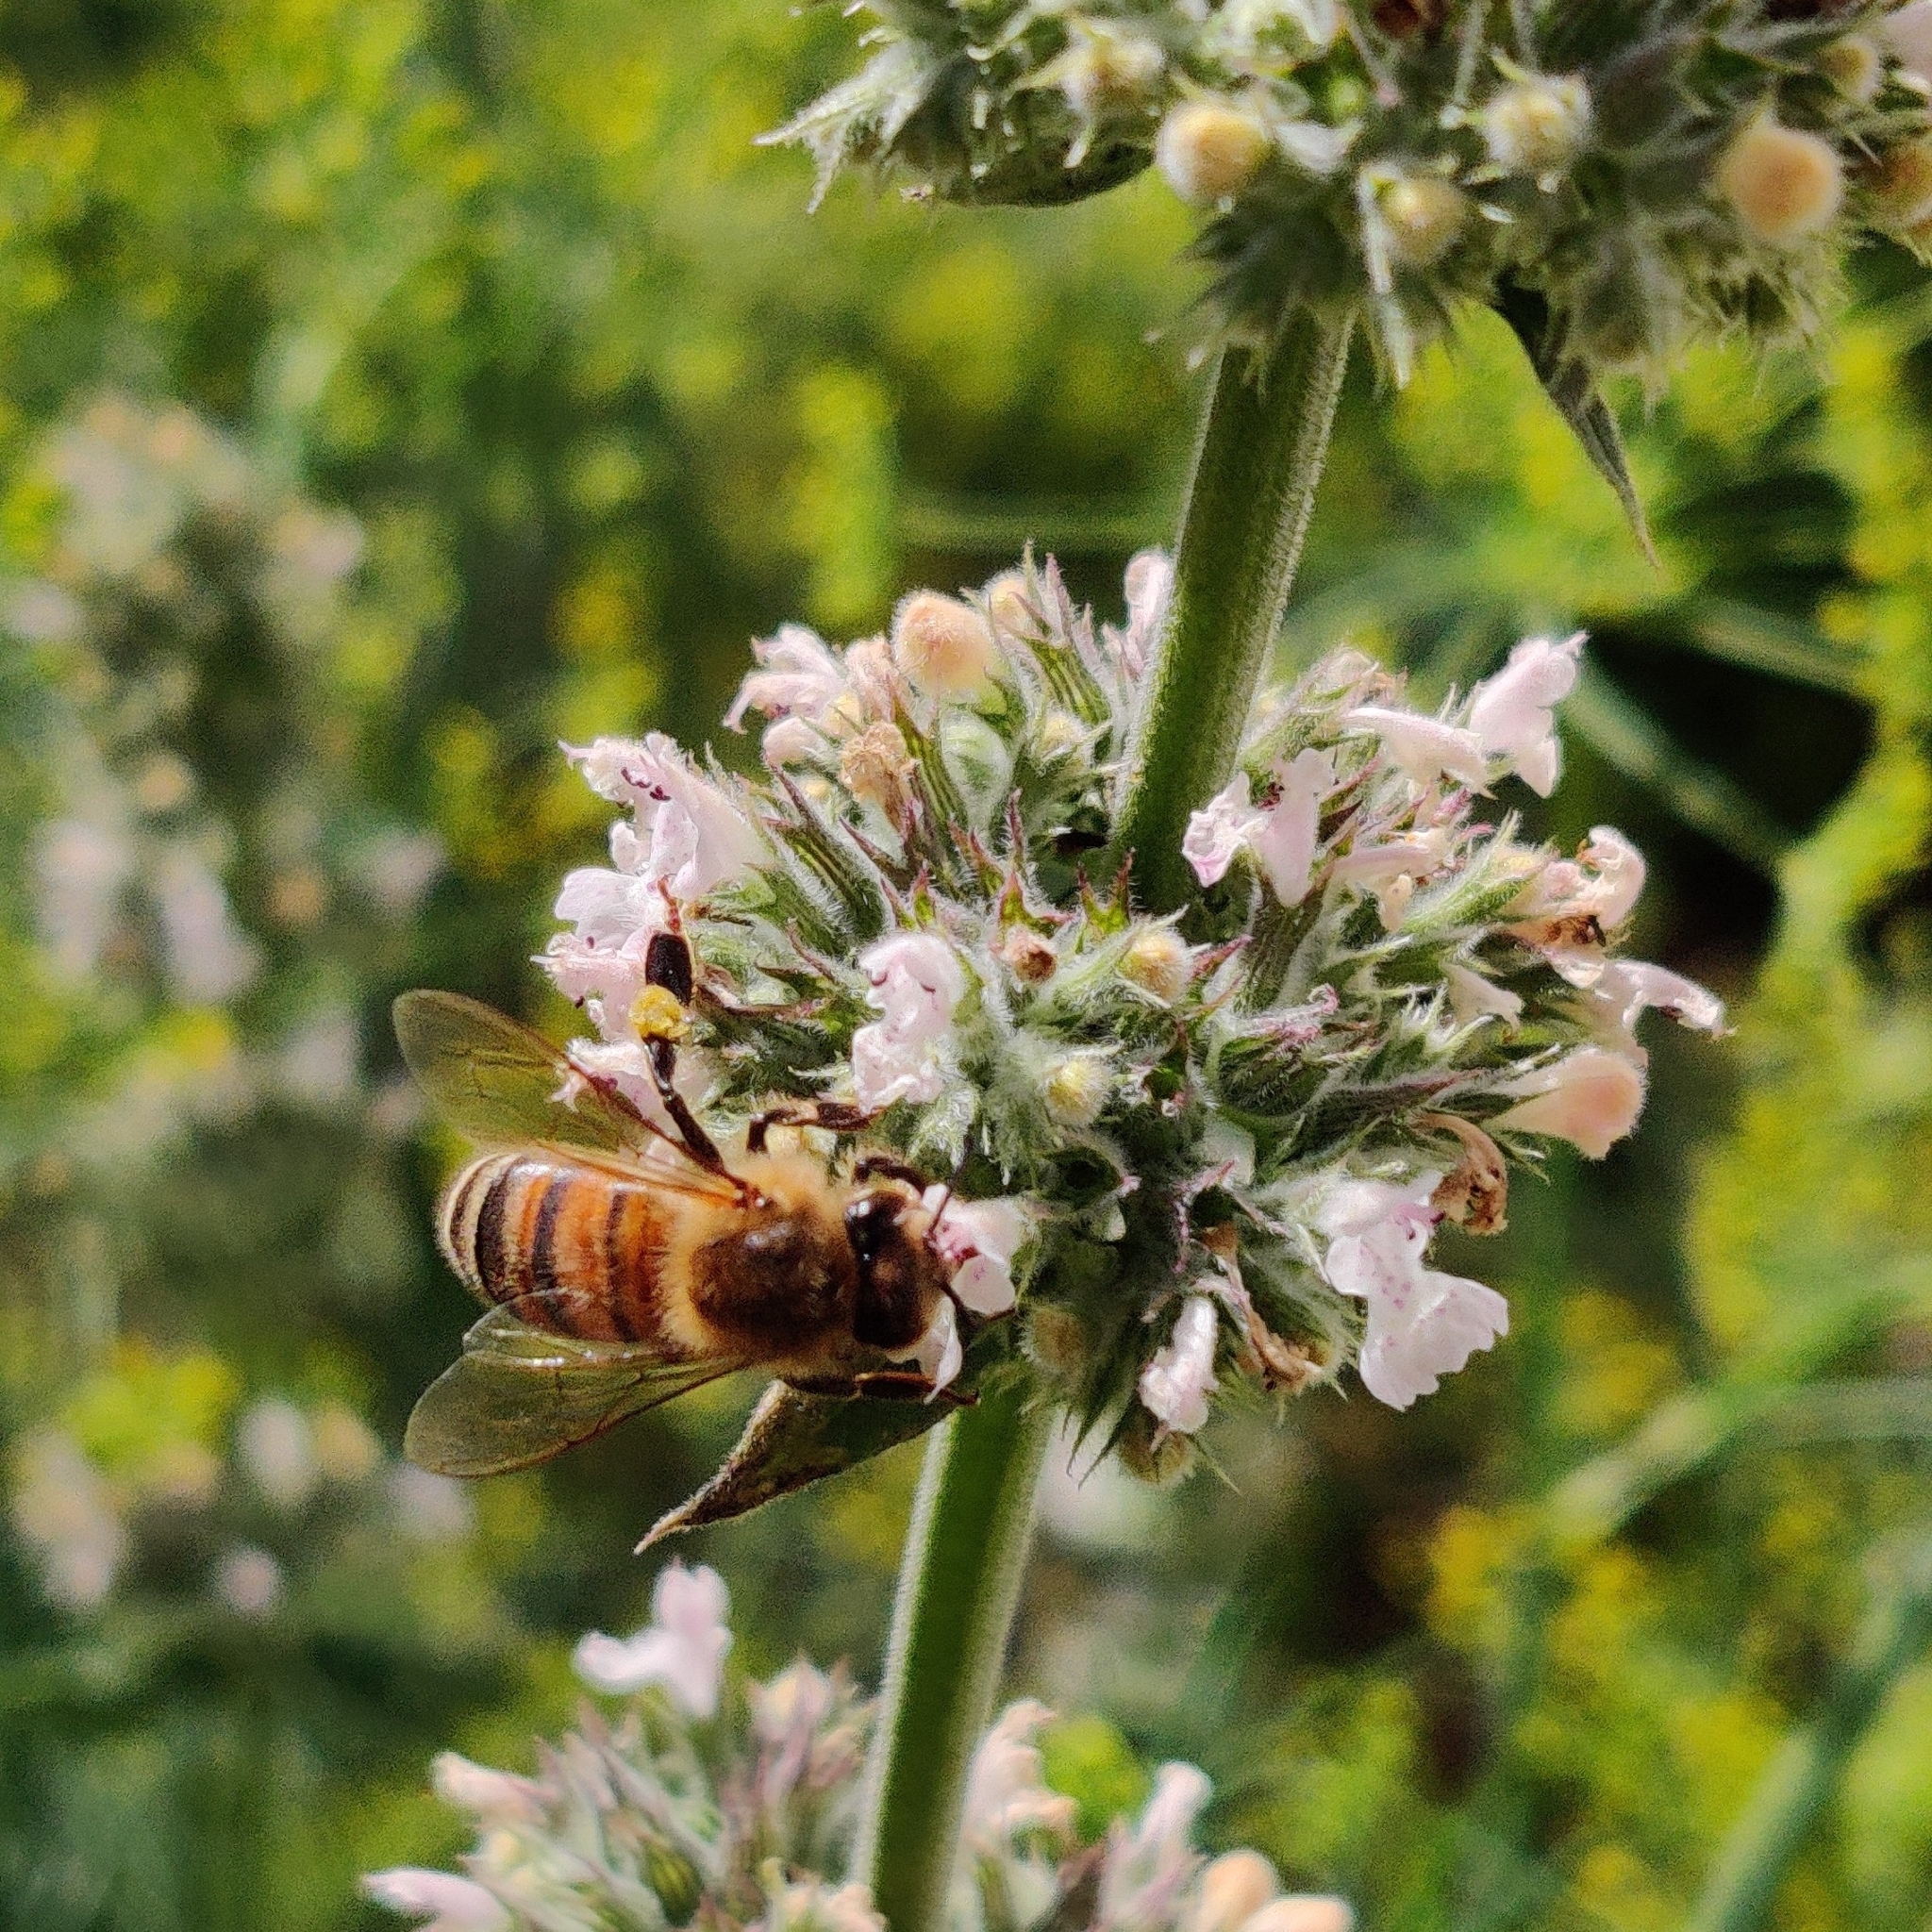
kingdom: Animalia
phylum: Arthropoda
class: Insecta
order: Hymenoptera
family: Apidae
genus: Apis
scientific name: Apis mellifera
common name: Honey bee
